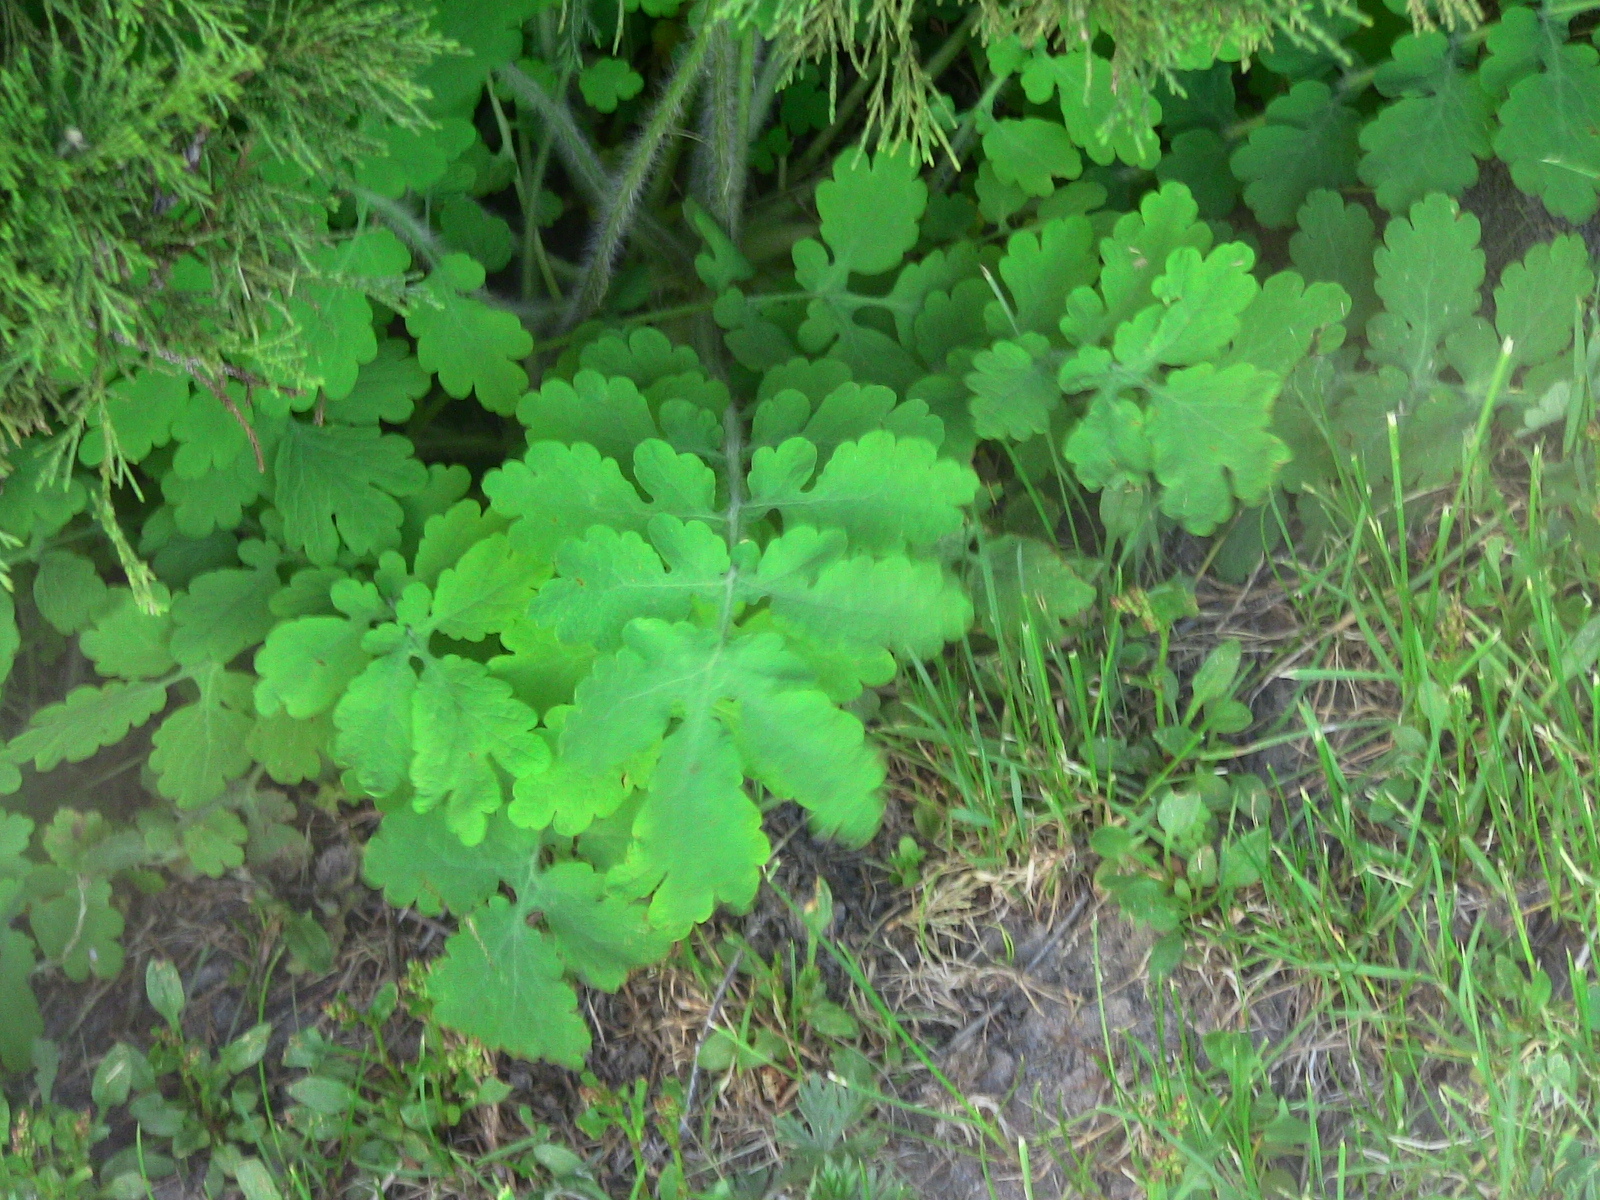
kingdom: Plantae
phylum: Tracheophyta
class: Magnoliopsida
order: Ranunculales
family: Papaveraceae
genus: Chelidonium
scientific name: Chelidonium majus
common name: Greater celandine
